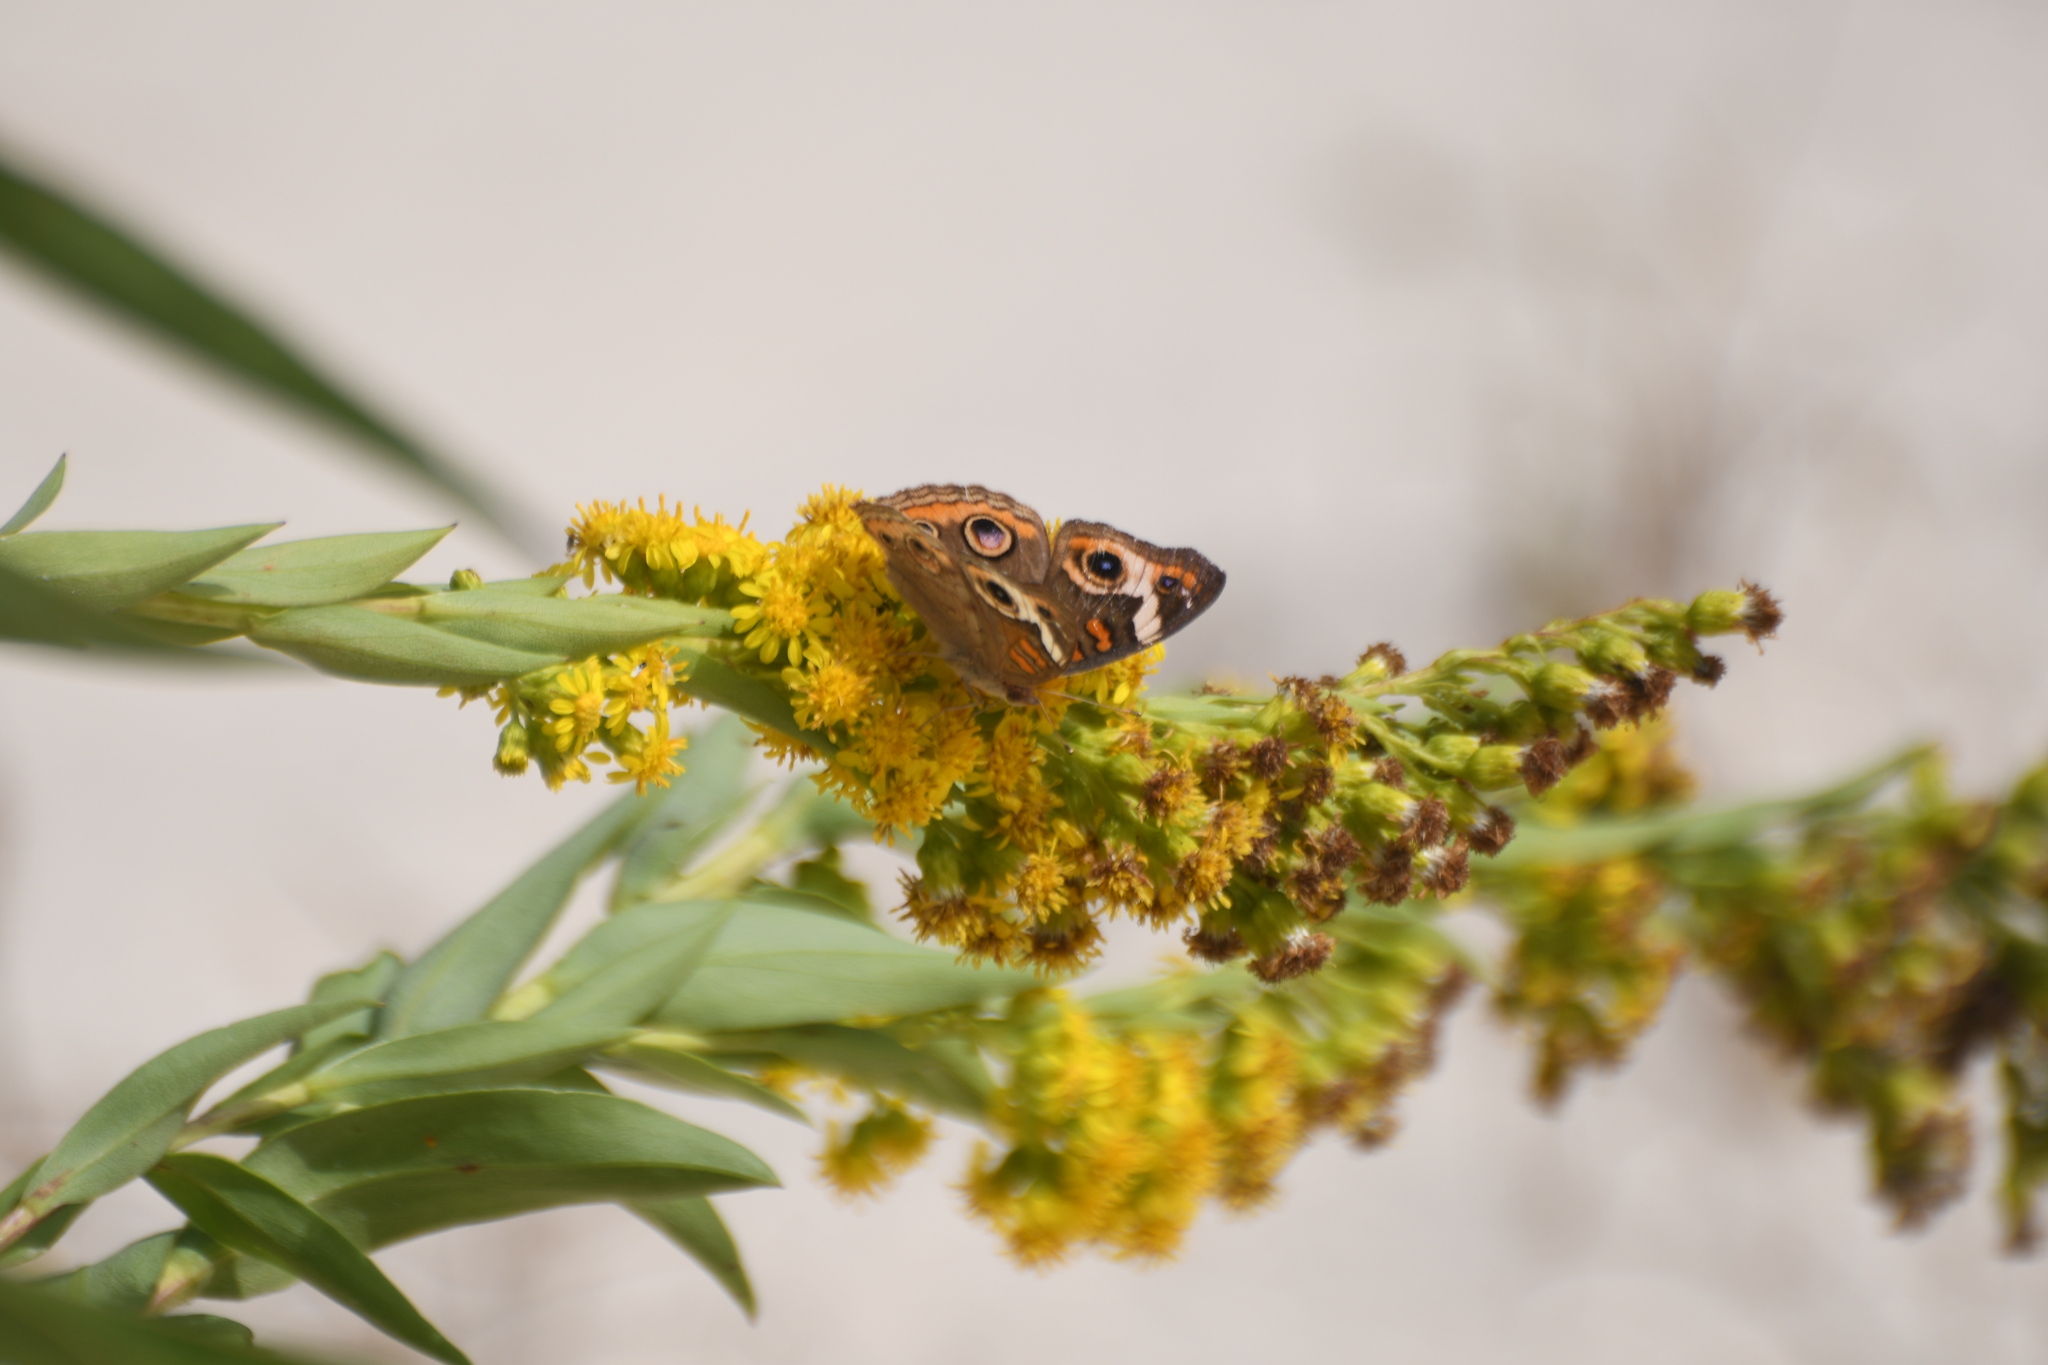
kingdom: Animalia
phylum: Arthropoda
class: Insecta
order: Lepidoptera
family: Nymphalidae
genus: Junonia
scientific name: Junonia coenia
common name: Common buckeye
